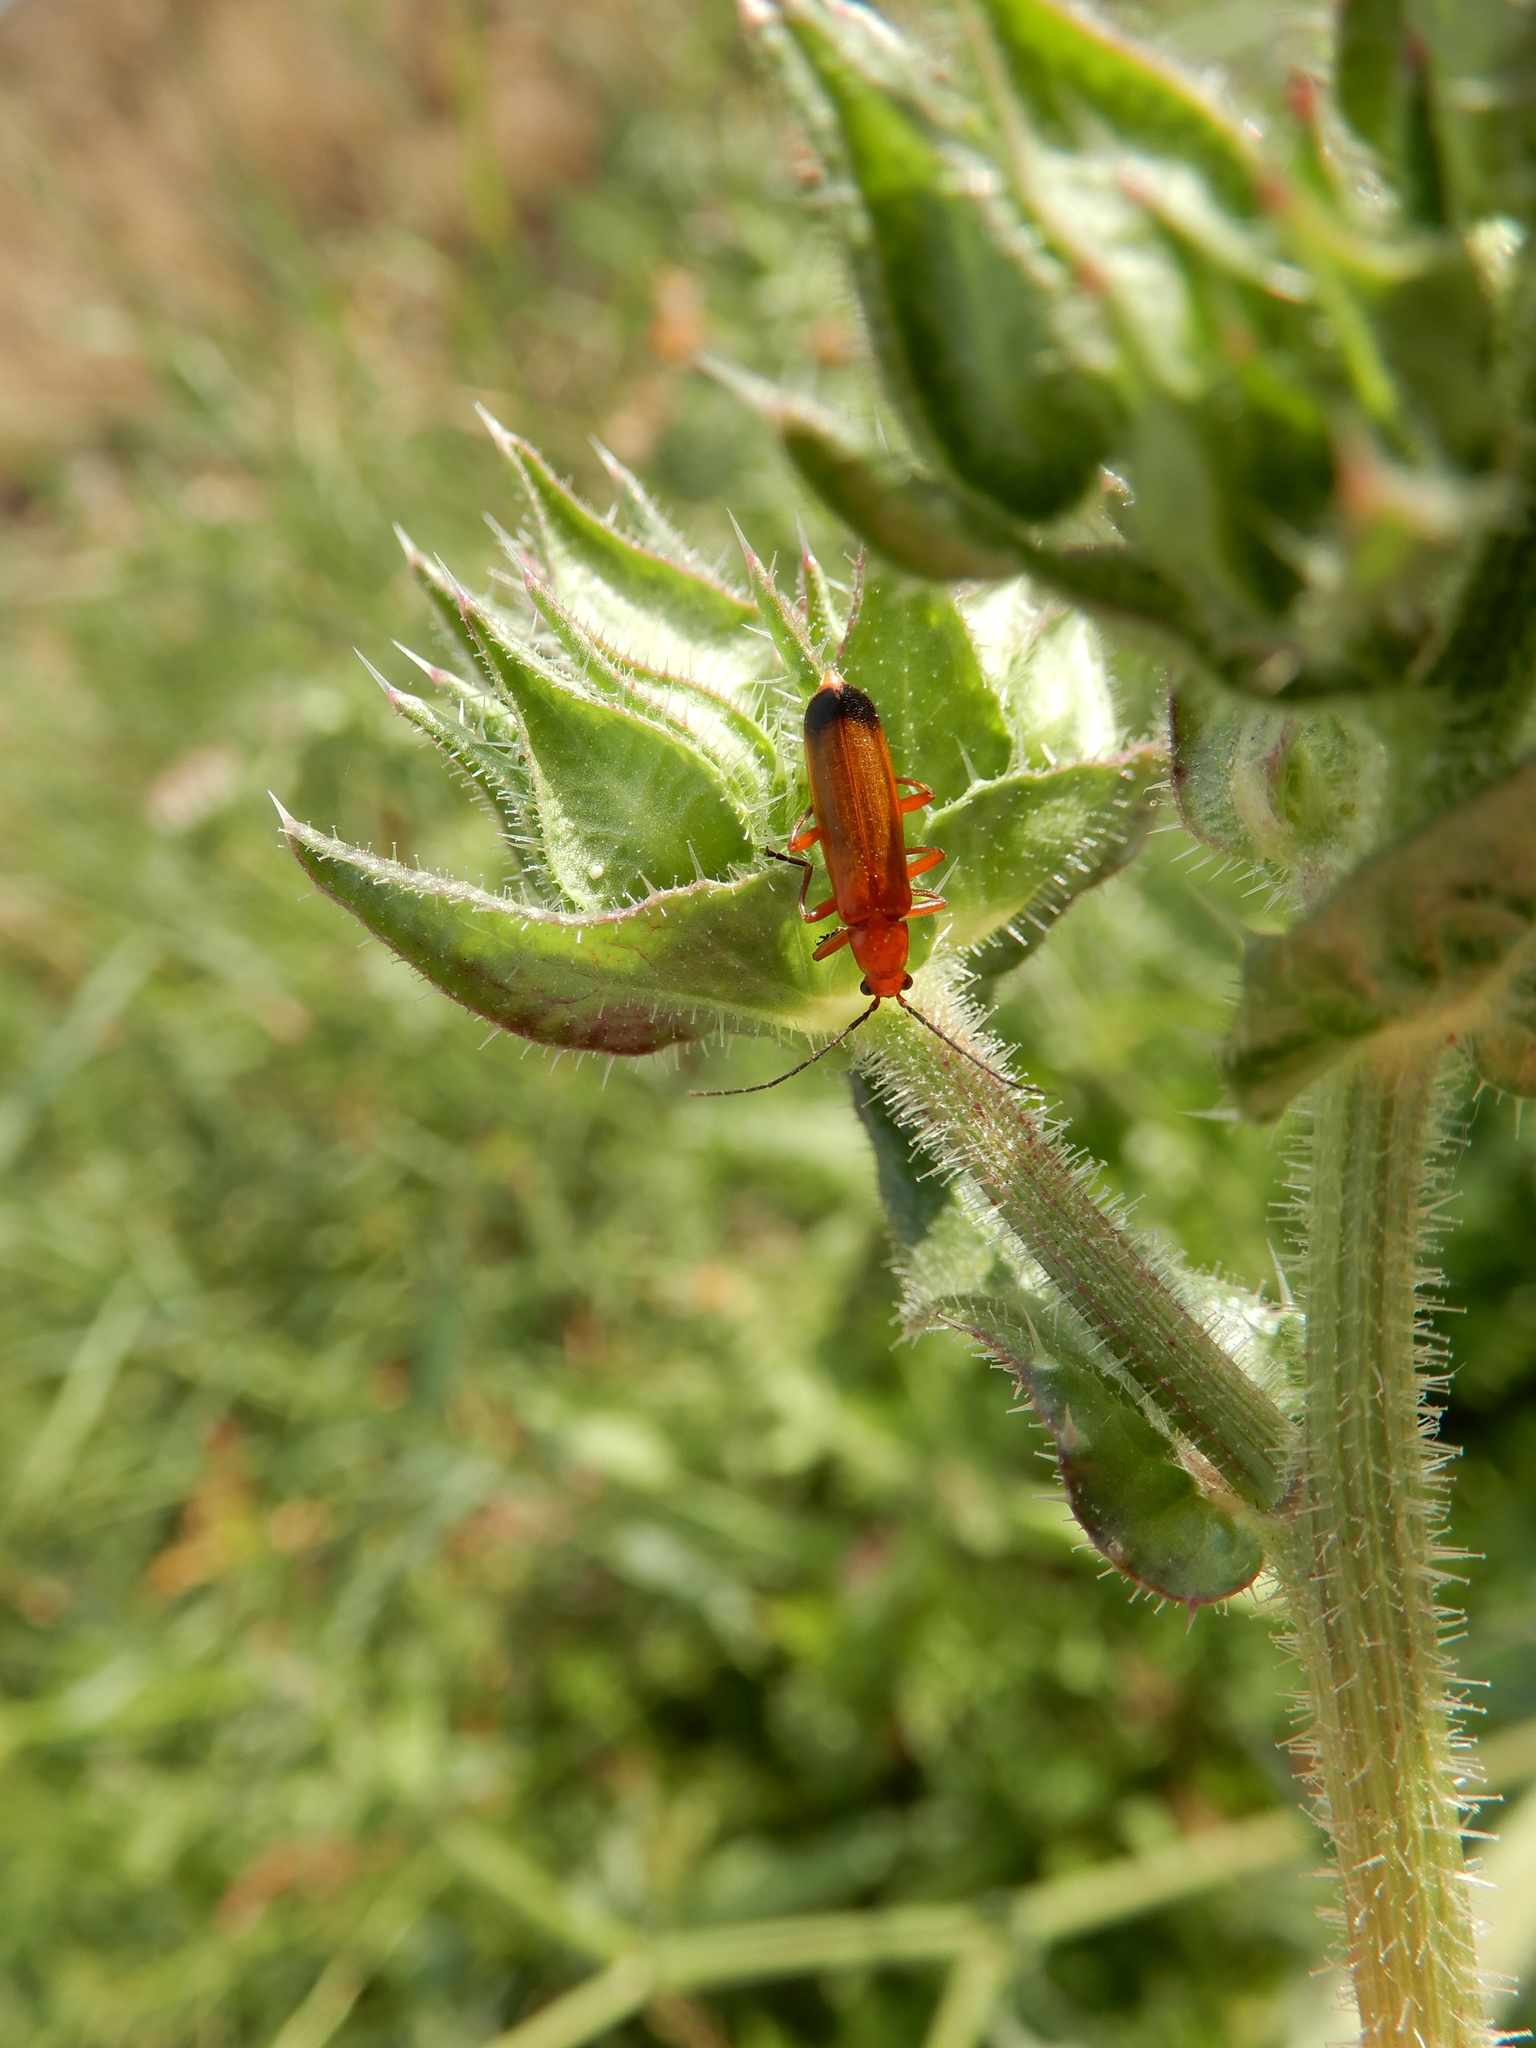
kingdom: Animalia
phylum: Arthropoda
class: Insecta
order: Coleoptera
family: Cantharidae
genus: Rhagonycha
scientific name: Rhagonycha fulva
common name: Common red soldier beetle
